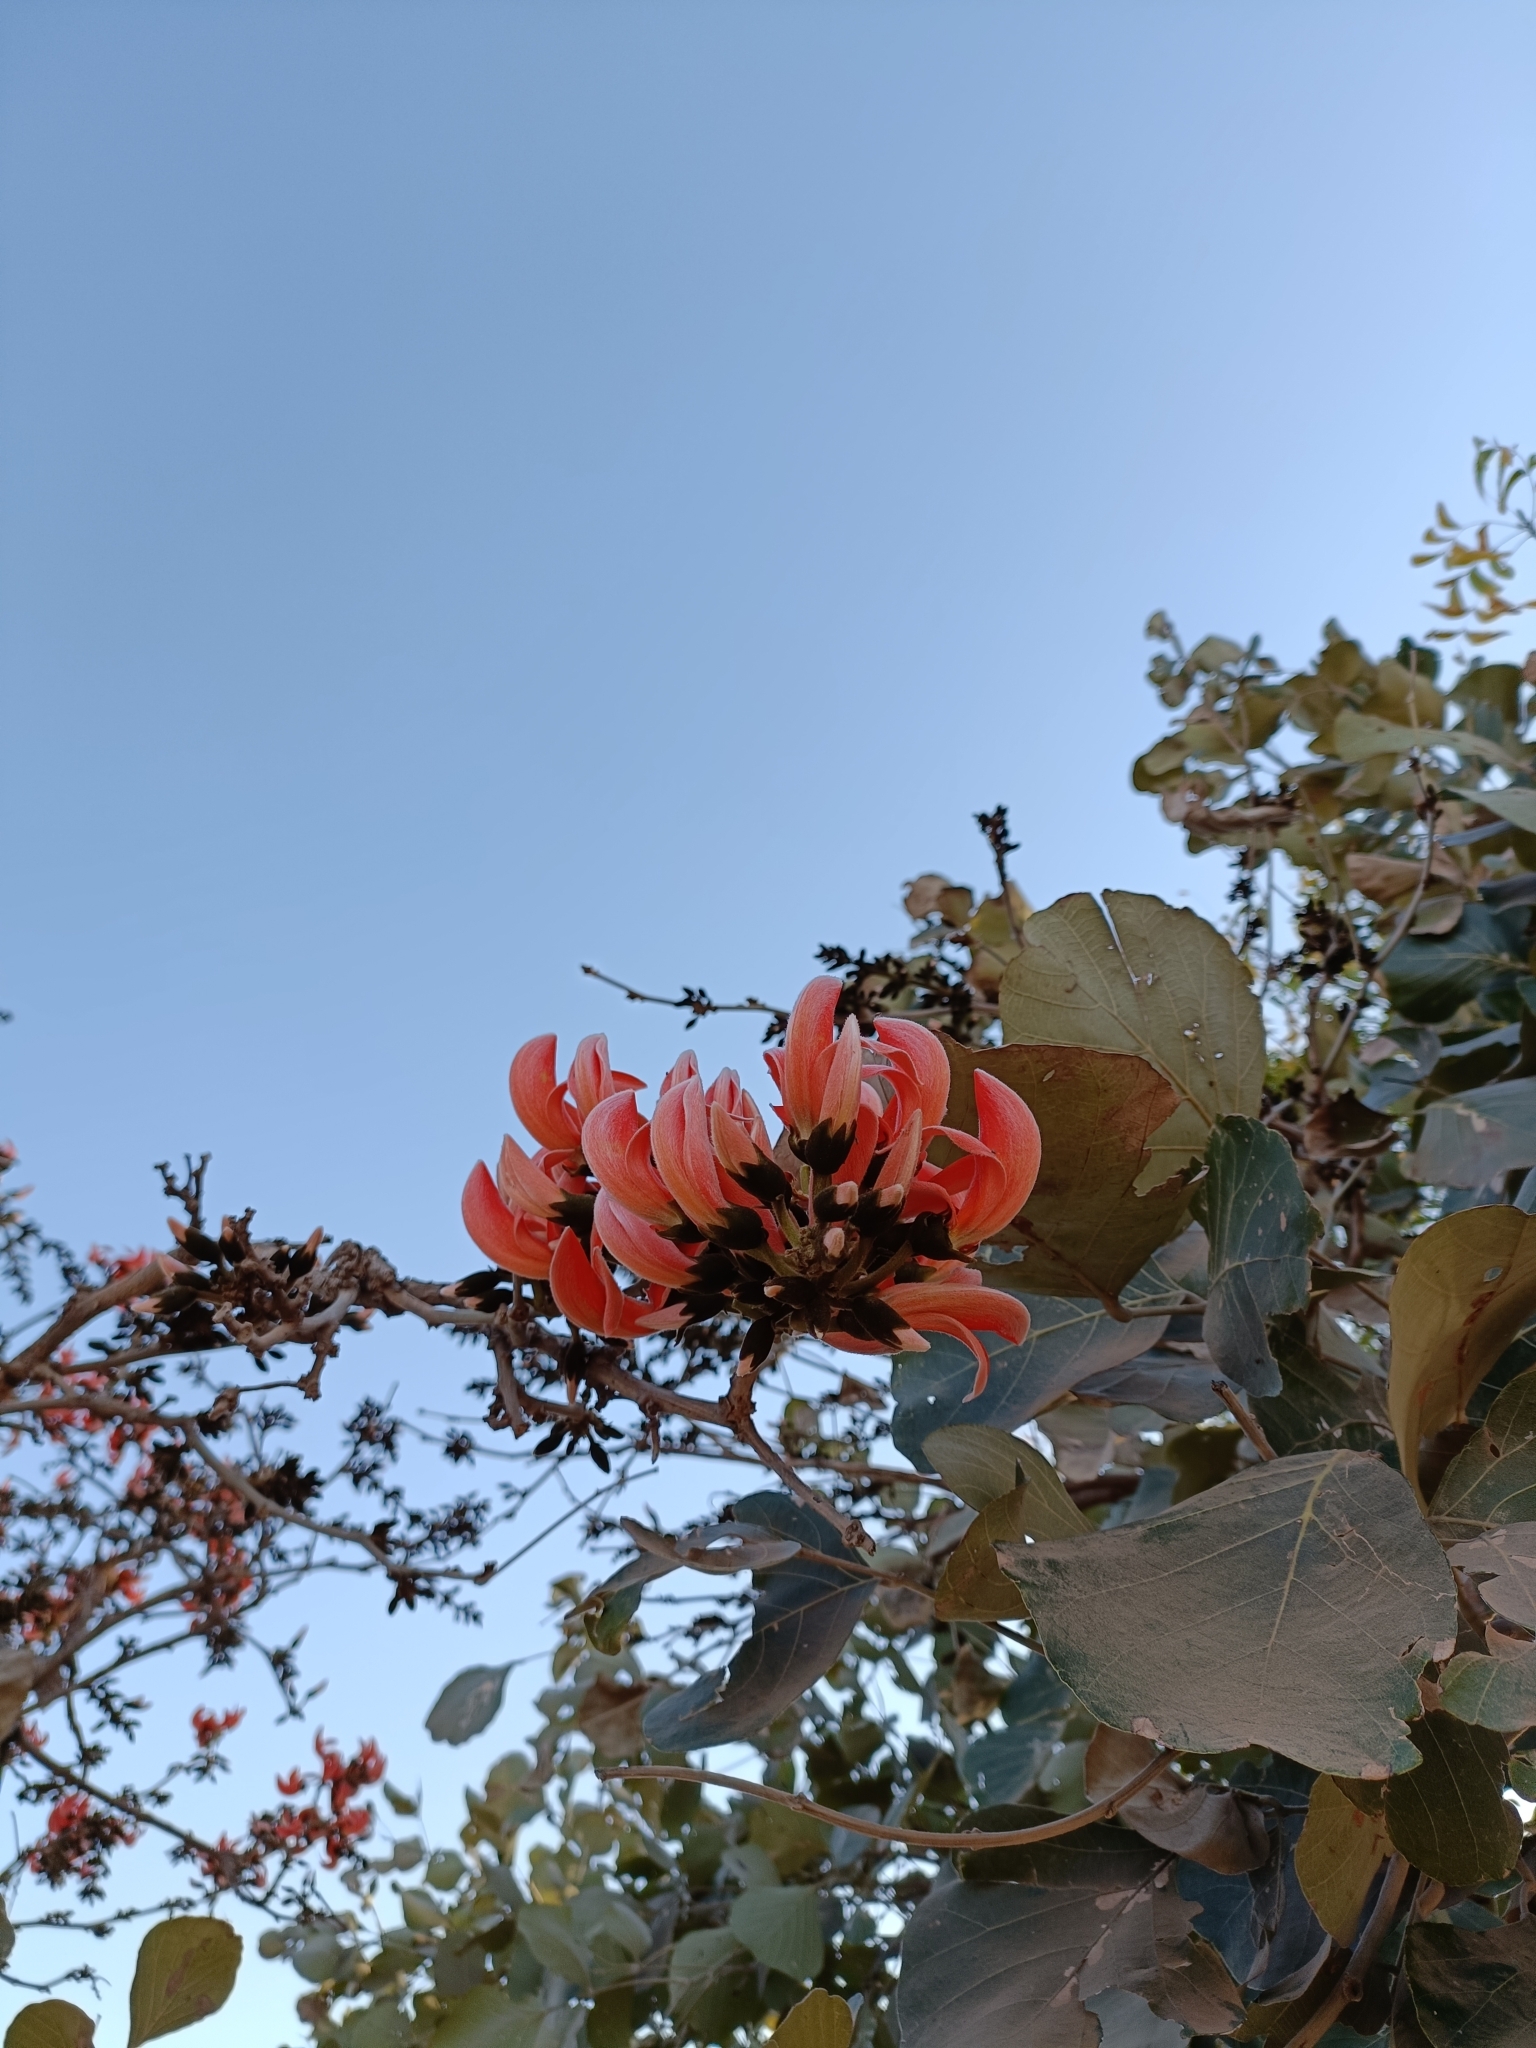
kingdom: Plantae
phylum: Tracheophyta
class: Magnoliopsida
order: Fabales
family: Fabaceae
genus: Butea
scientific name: Butea monosperma
